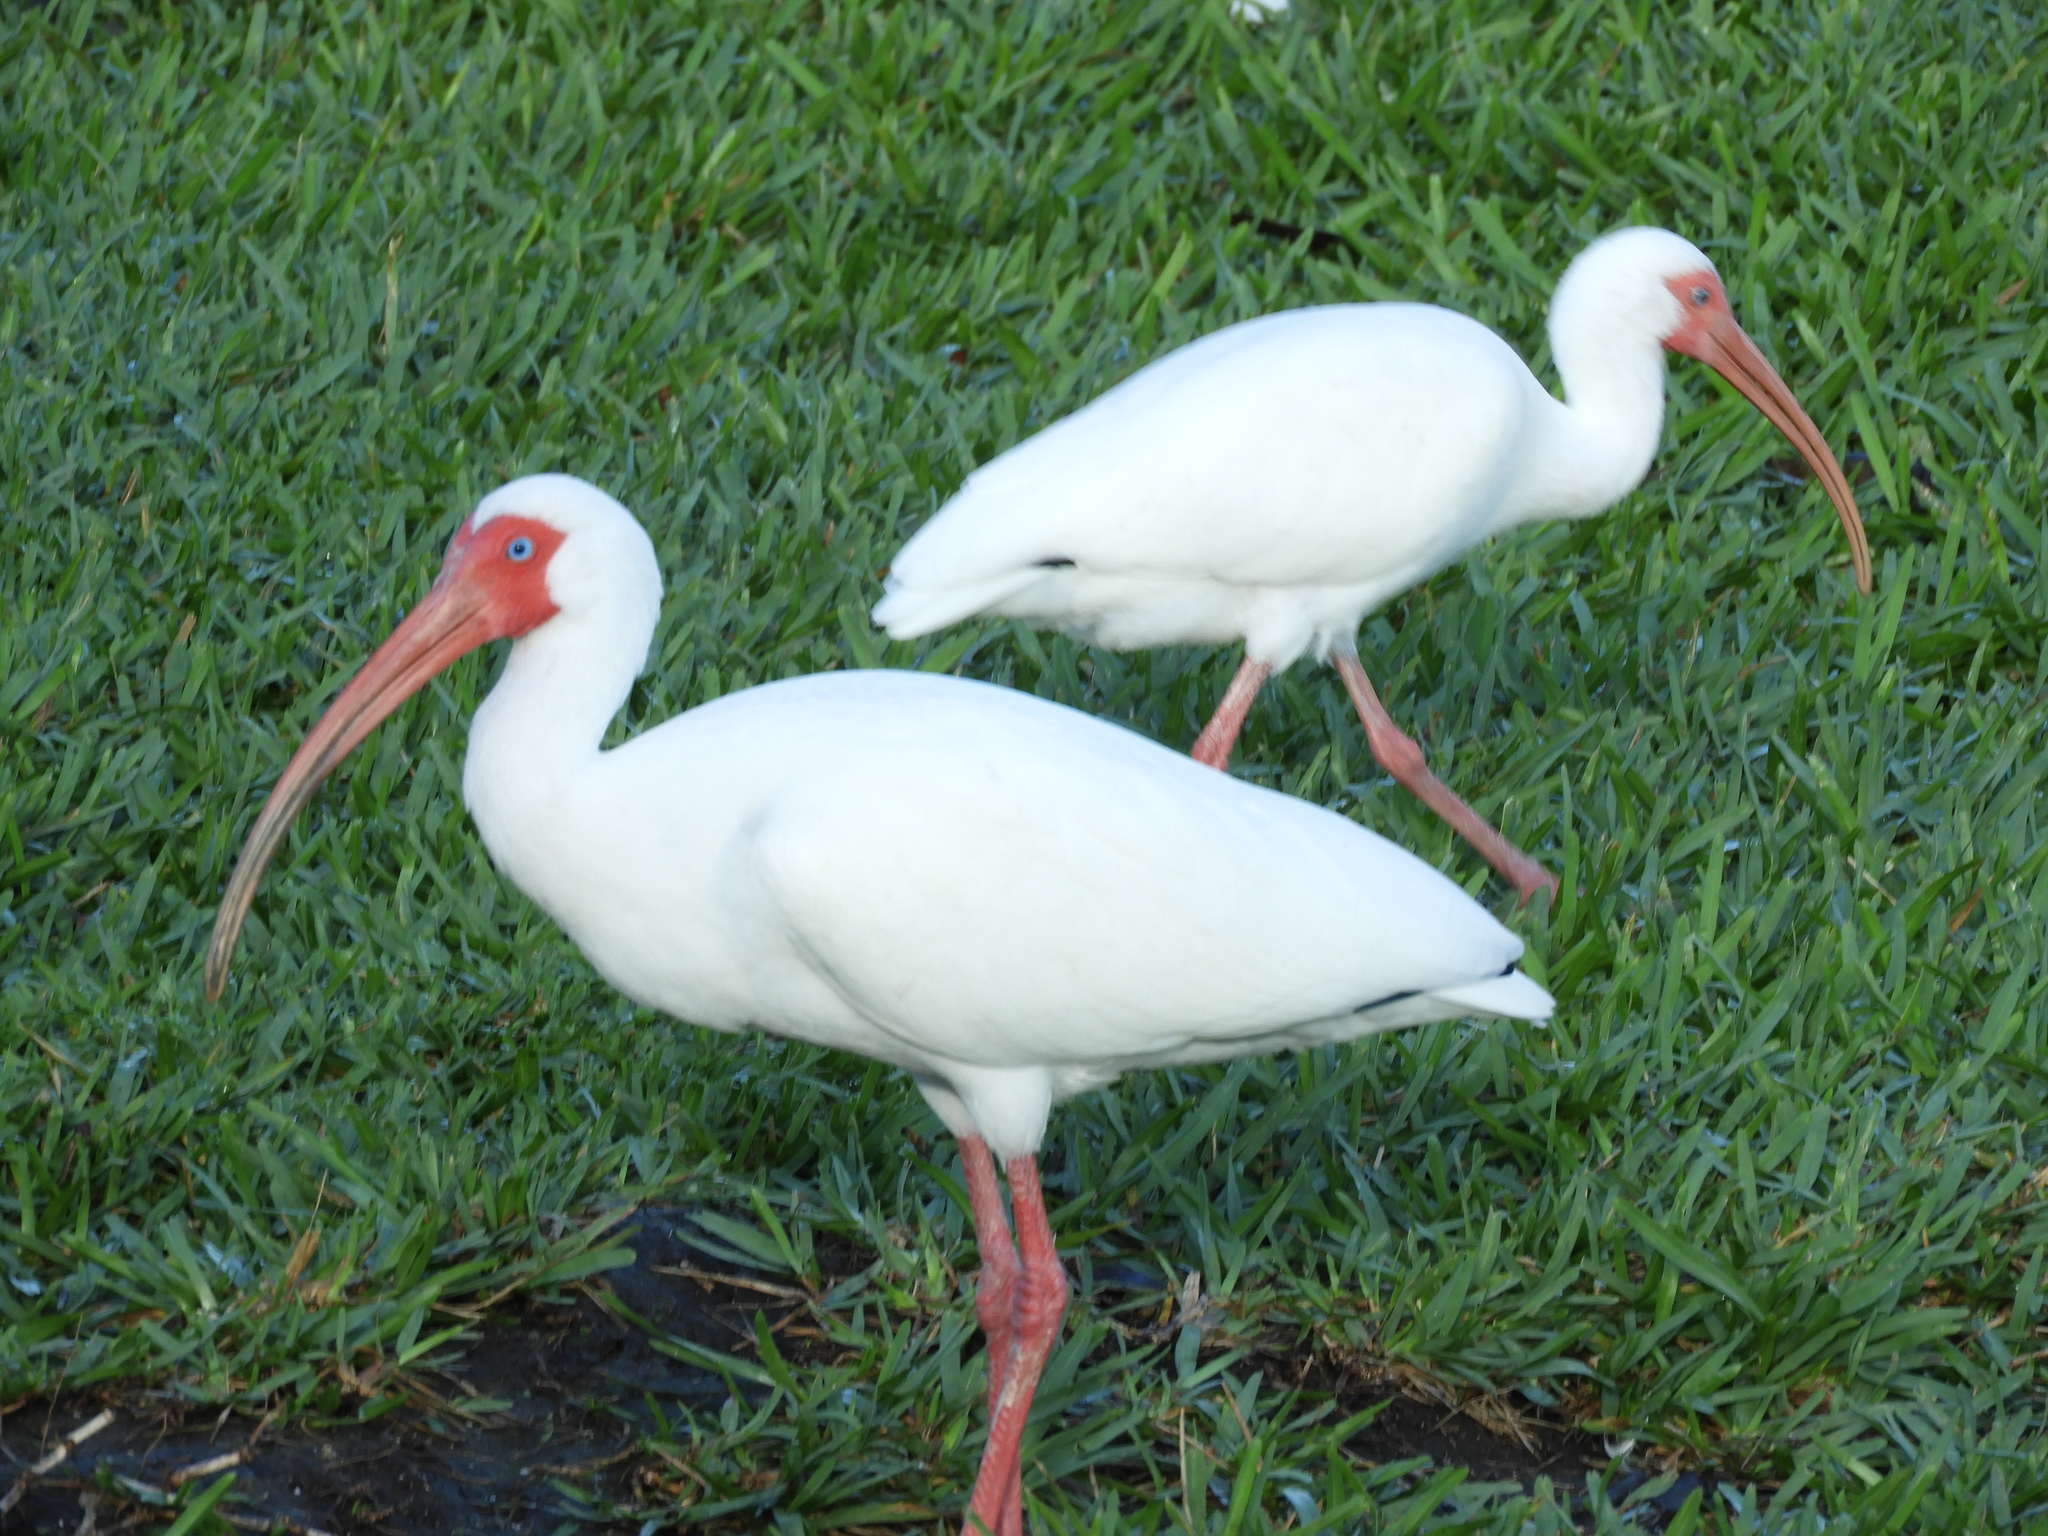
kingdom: Animalia
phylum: Chordata
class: Aves
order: Pelecaniformes
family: Threskiornithidae
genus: Eudocimus
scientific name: Eudocimus albus
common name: White ibis
